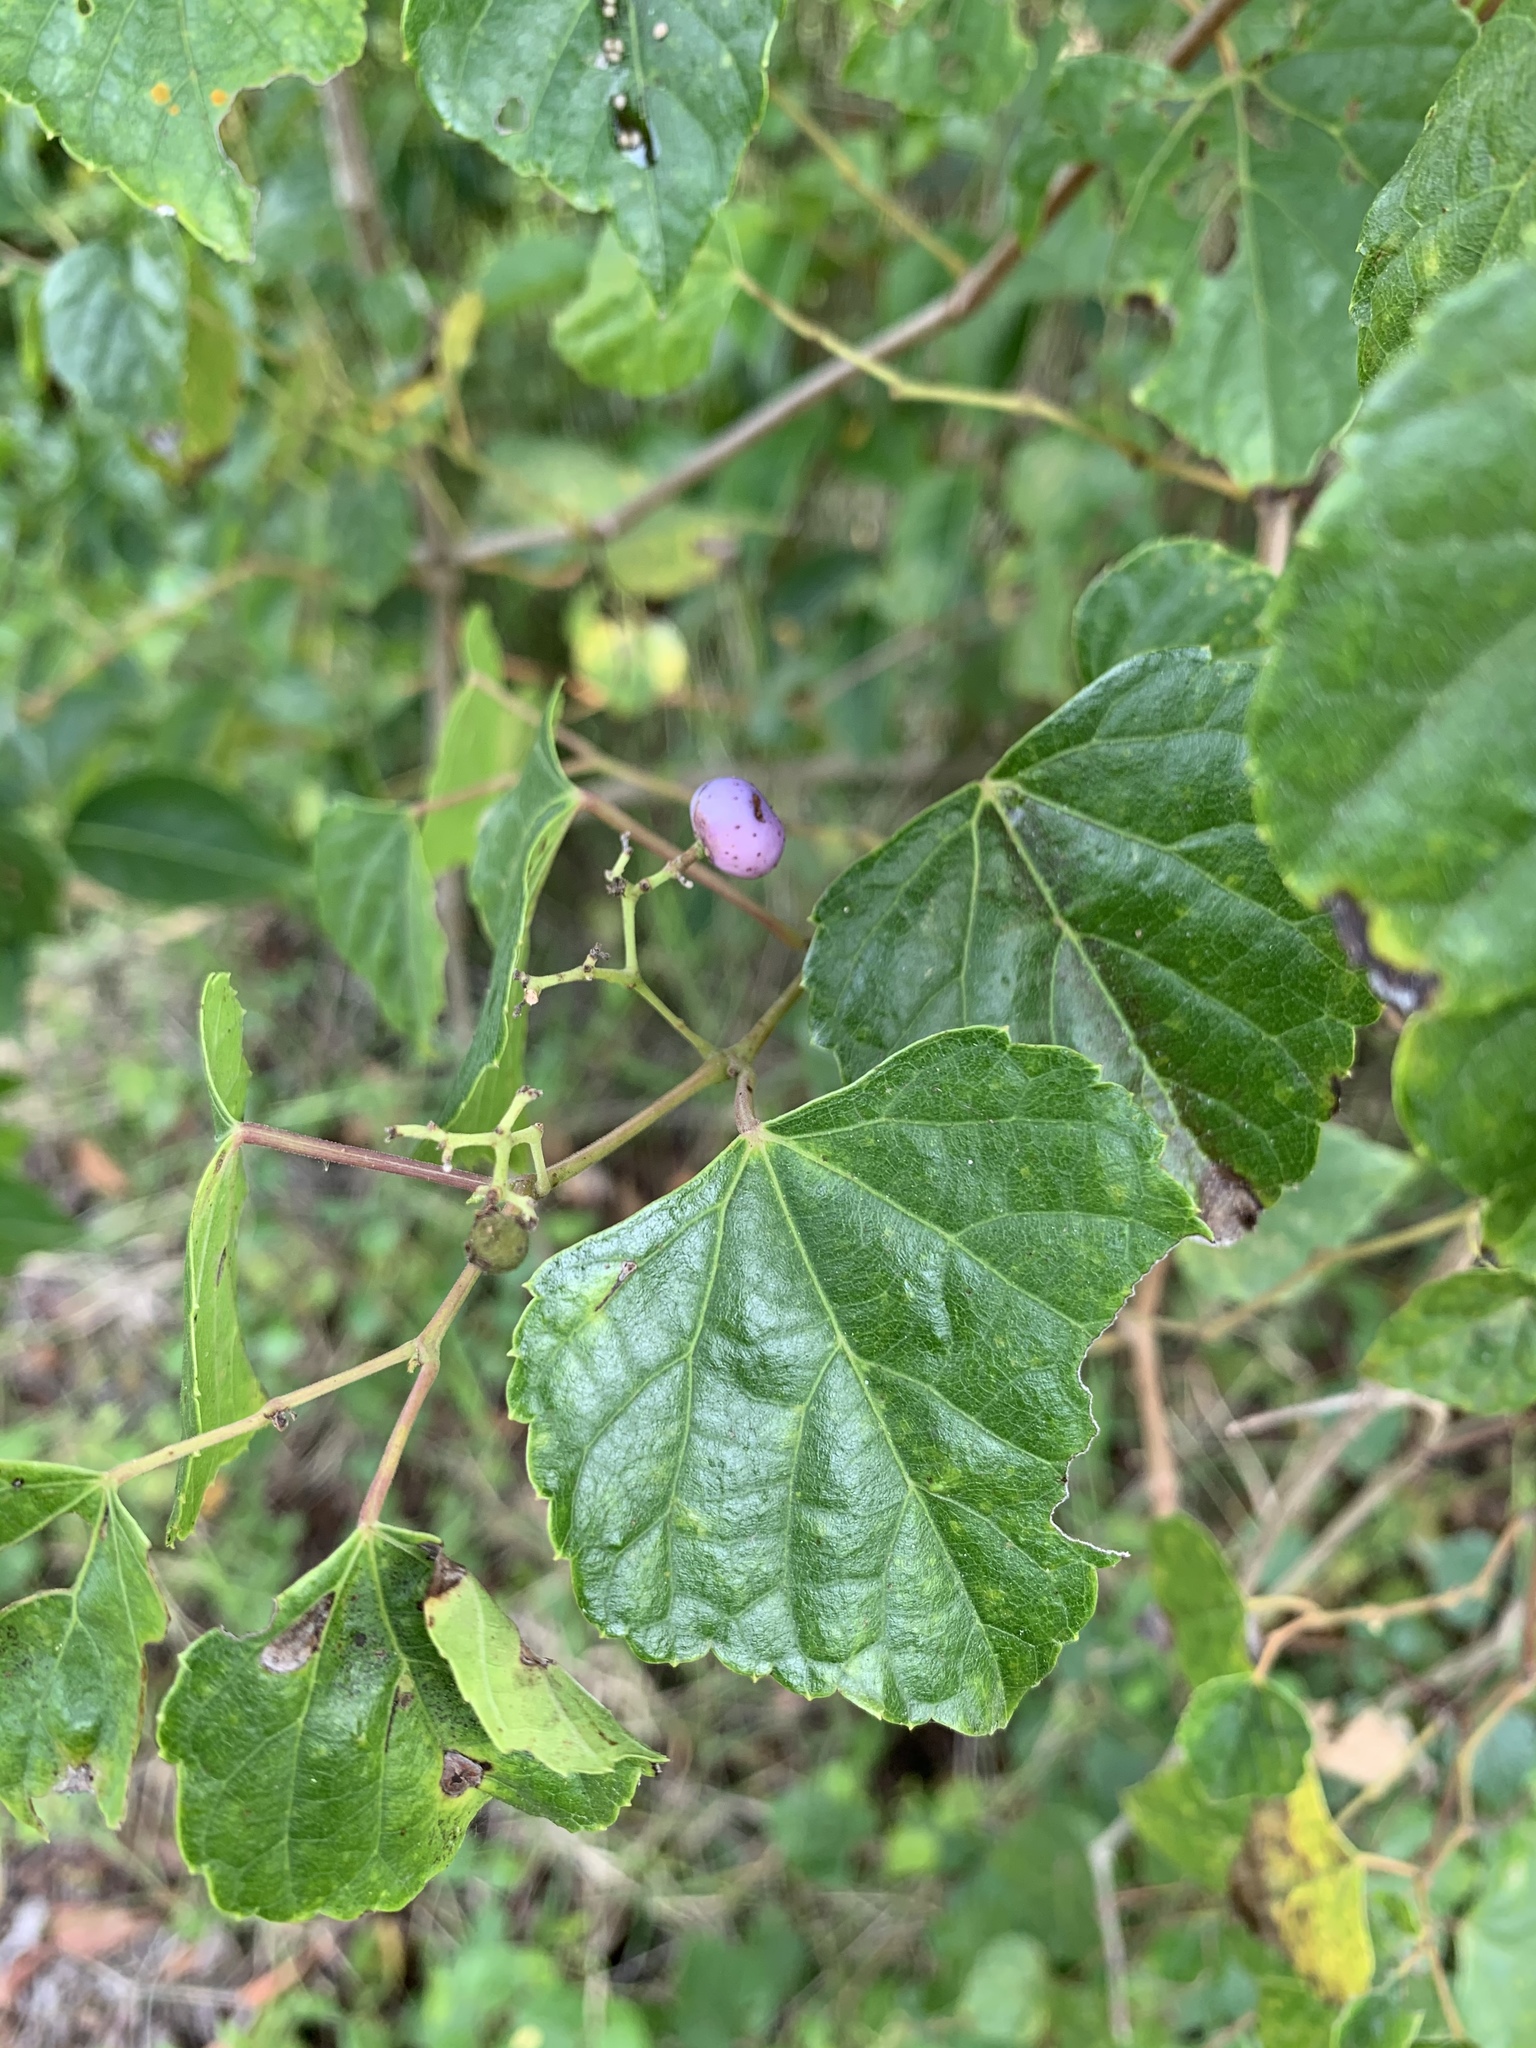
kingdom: Plantae
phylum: Tracheophyta
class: Magnoliopsida
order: Vitales
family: Vitaceae
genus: Ampelopsis
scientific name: Ampelopsis glandulosa
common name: Amur peppervine
